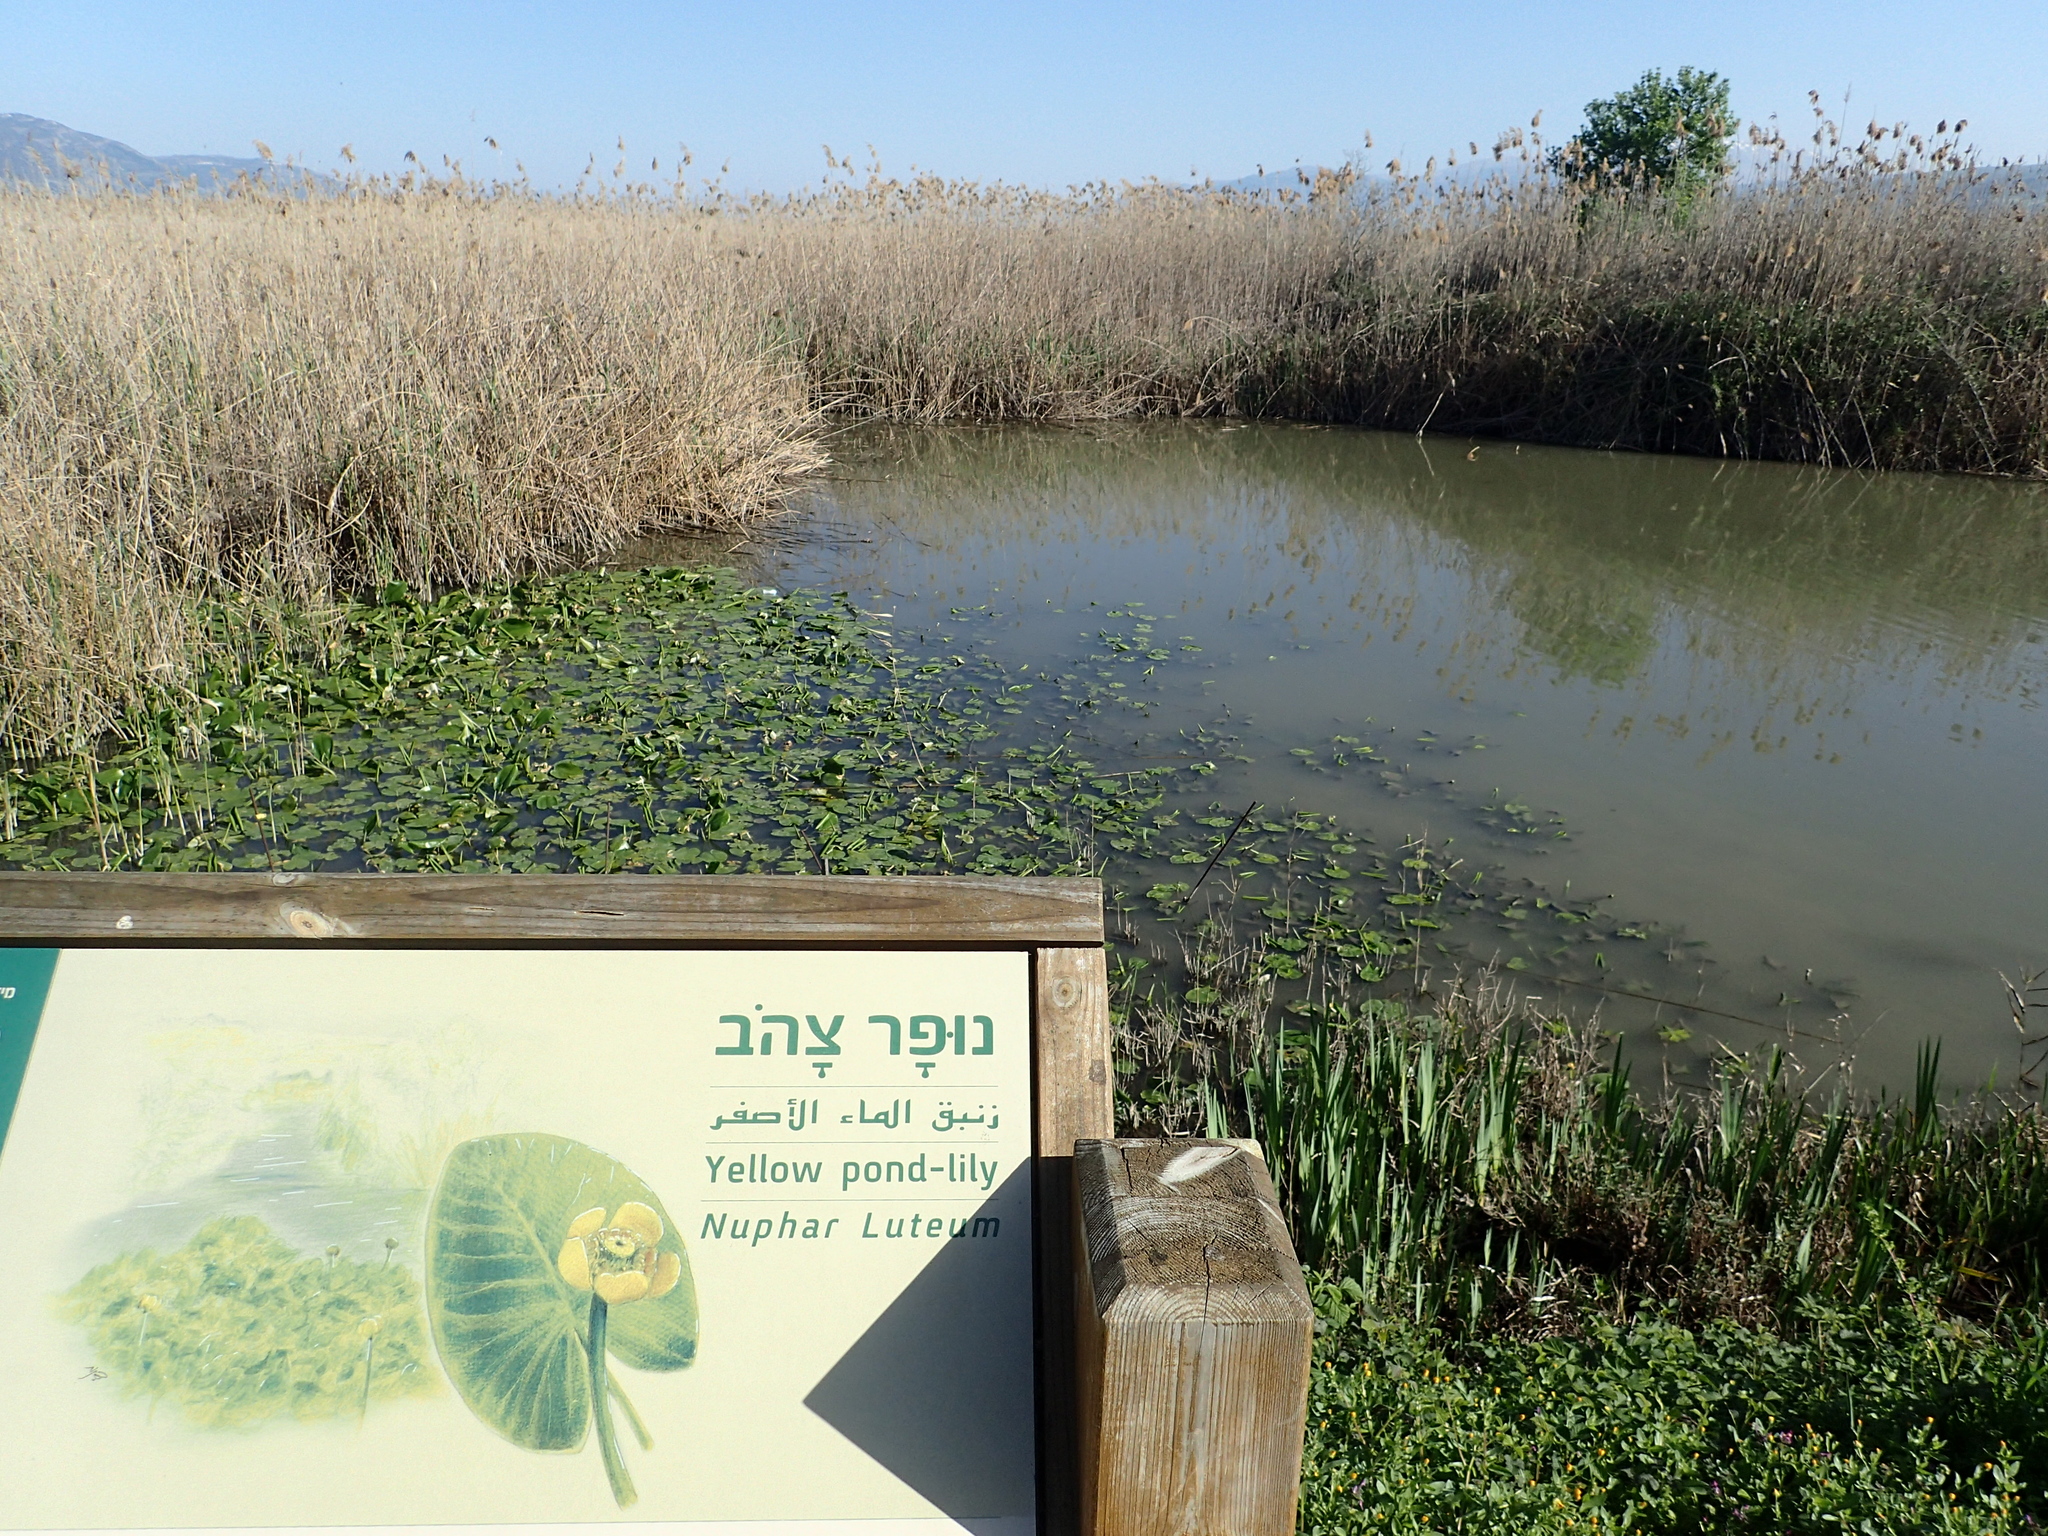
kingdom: Plantae
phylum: Tracheophyta
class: Magnoliopsida
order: Nymphaeales
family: Nymphaeaceae
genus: Nuphar
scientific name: Nuphar lutea
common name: Yellow water-lily
